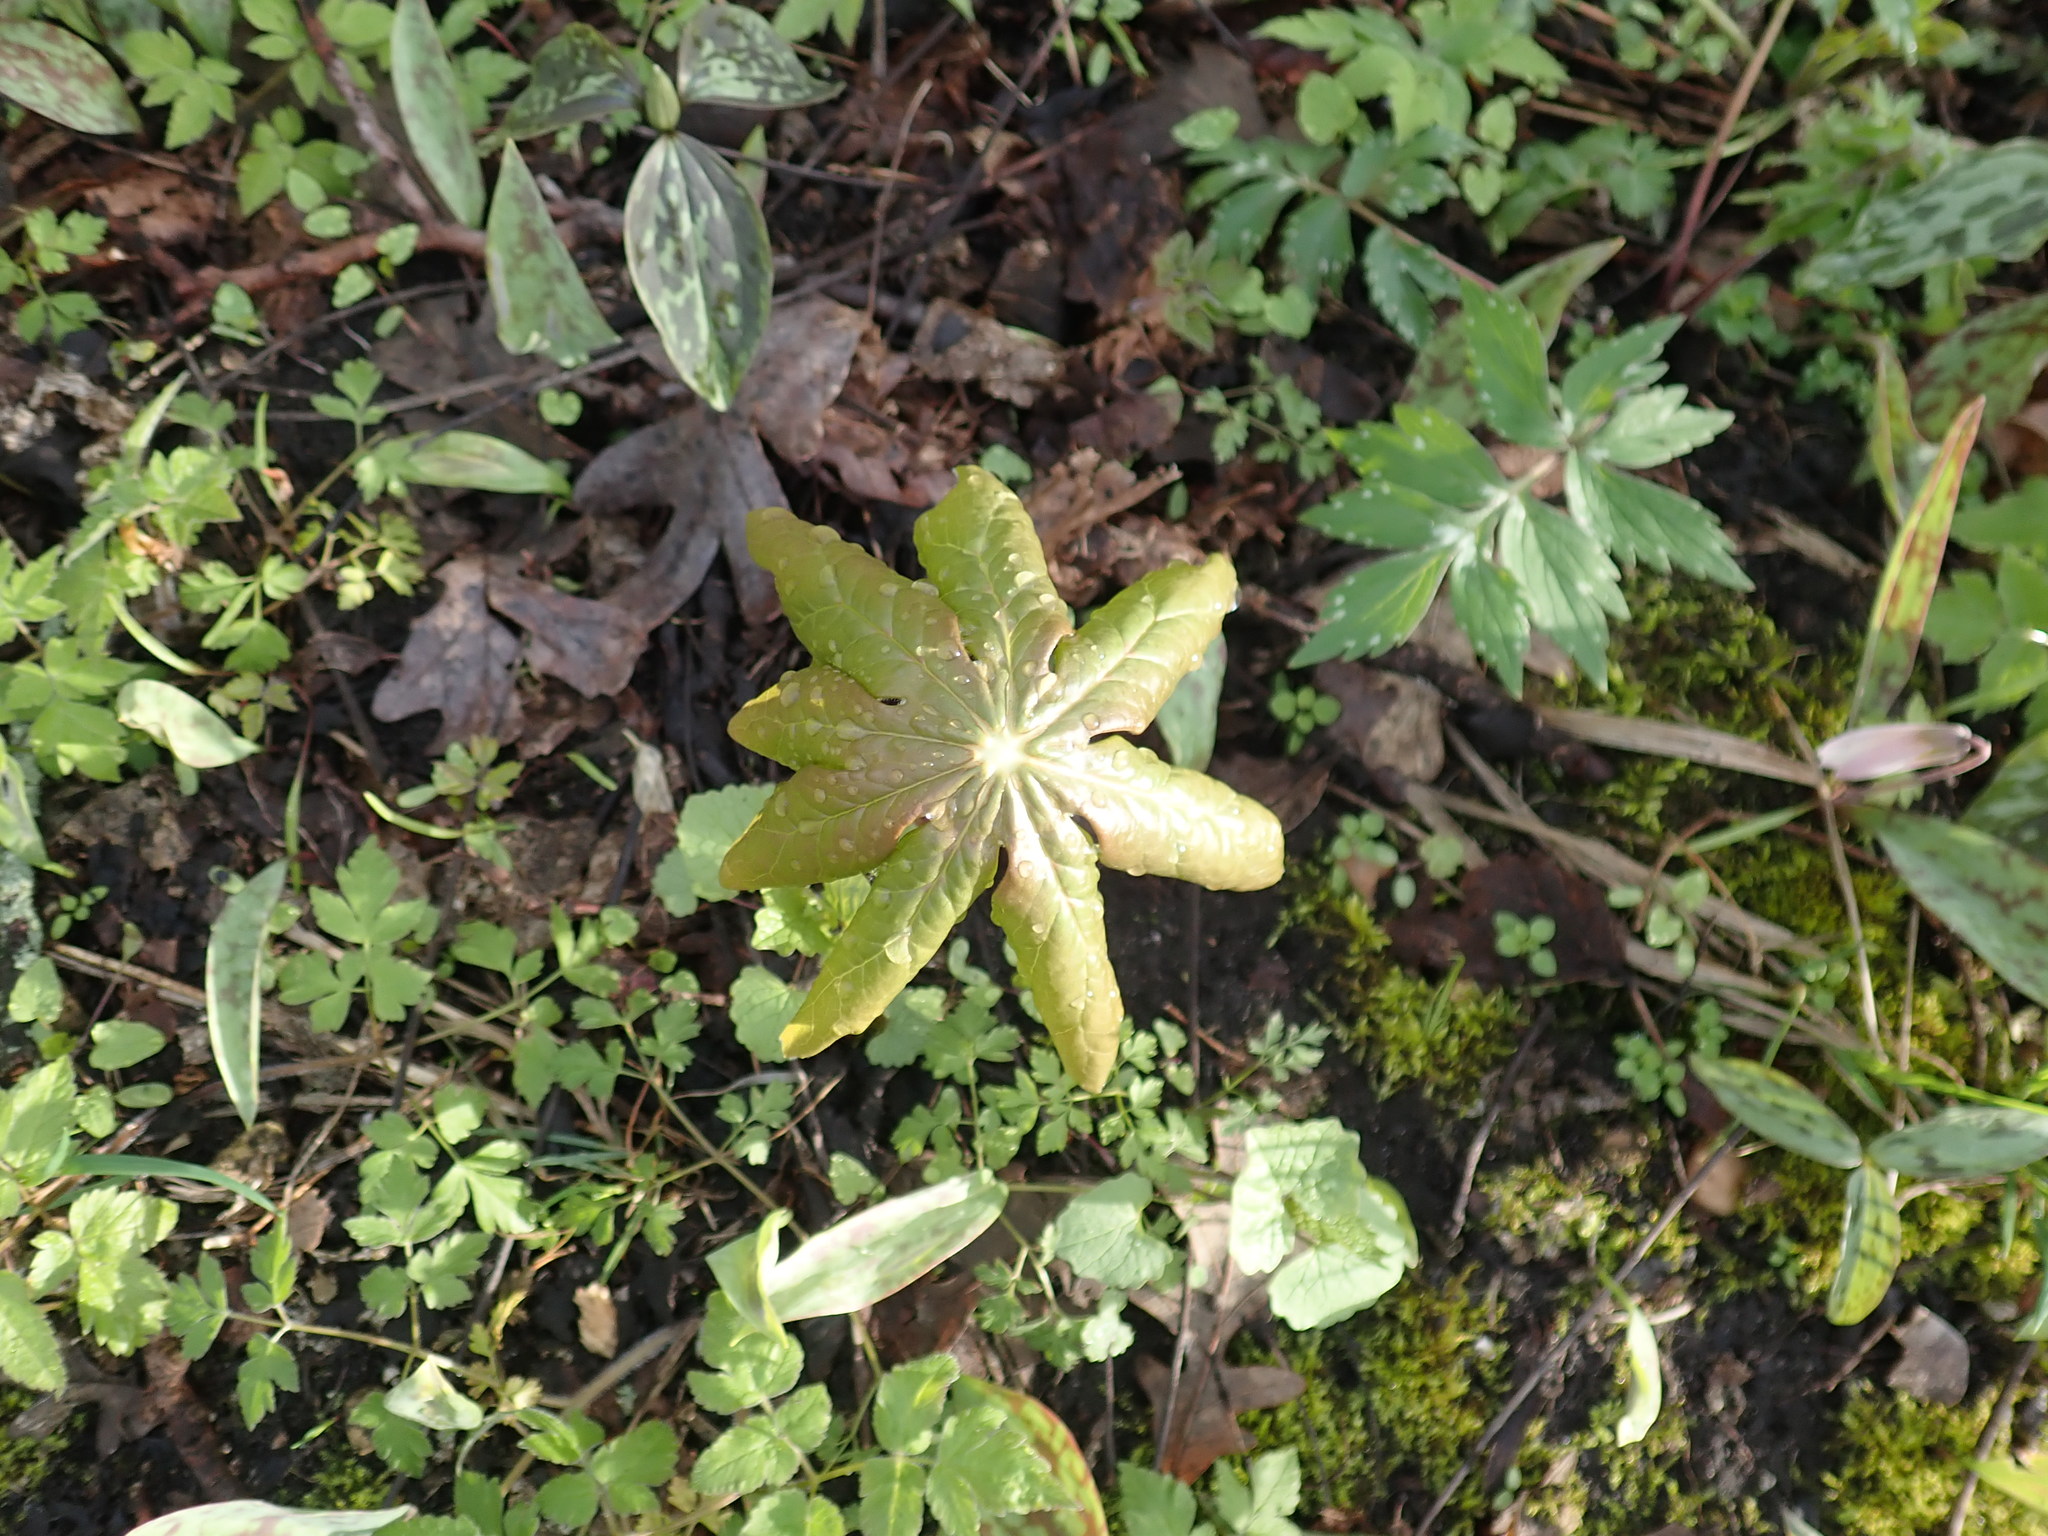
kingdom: Plantae
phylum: Tracheophyta
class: Magnoliopsida
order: Ranunculales
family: Berberidaceae
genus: Podophyllum
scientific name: Podophyllum peltatum
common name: Wild mandrake
